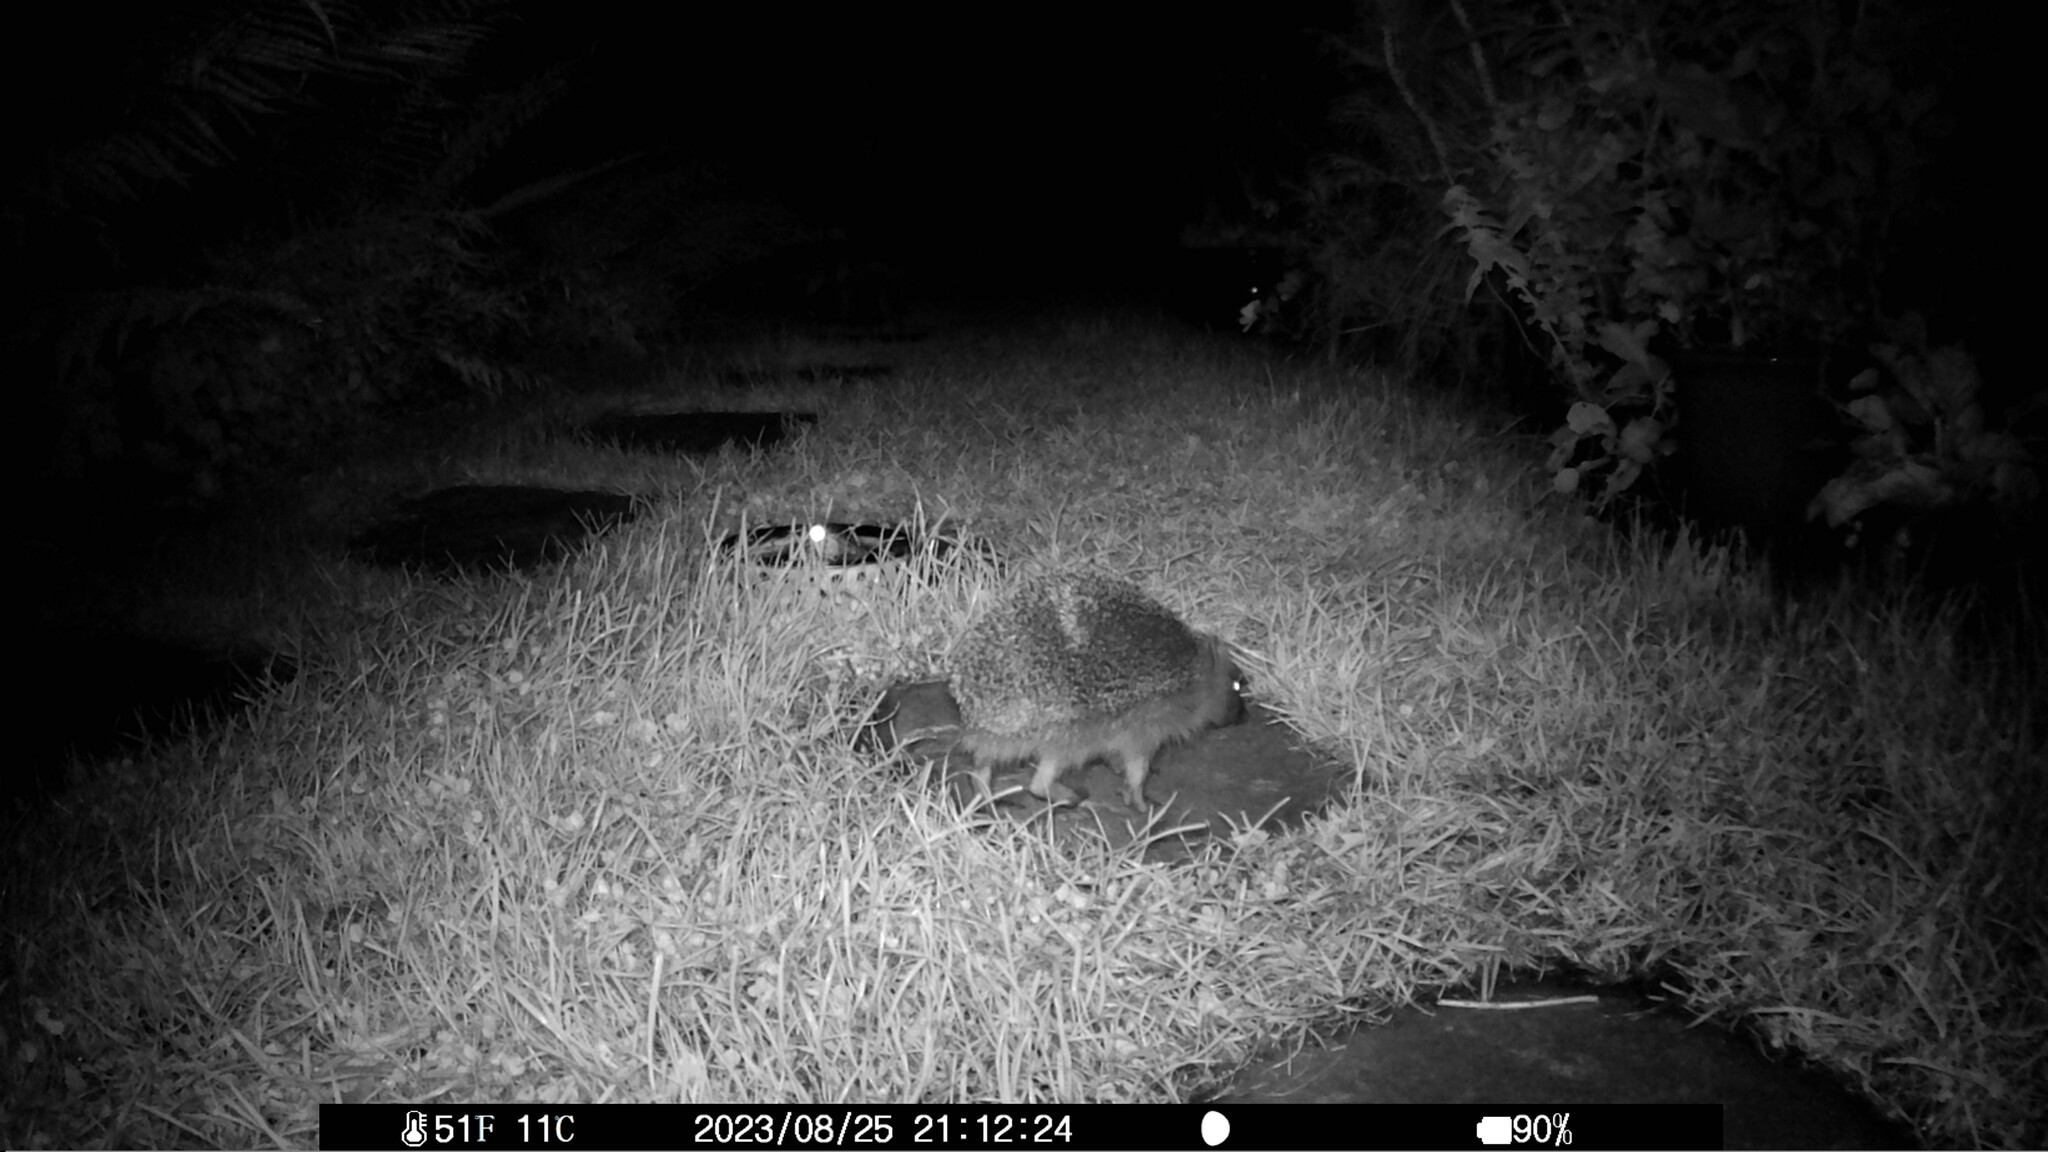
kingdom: Animalia
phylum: Chordata
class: Mammalia
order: Erinaceomorpha
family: Erinaceidae
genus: Erinaceus
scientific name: Erinaceus europaeus
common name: West european hedgehog
